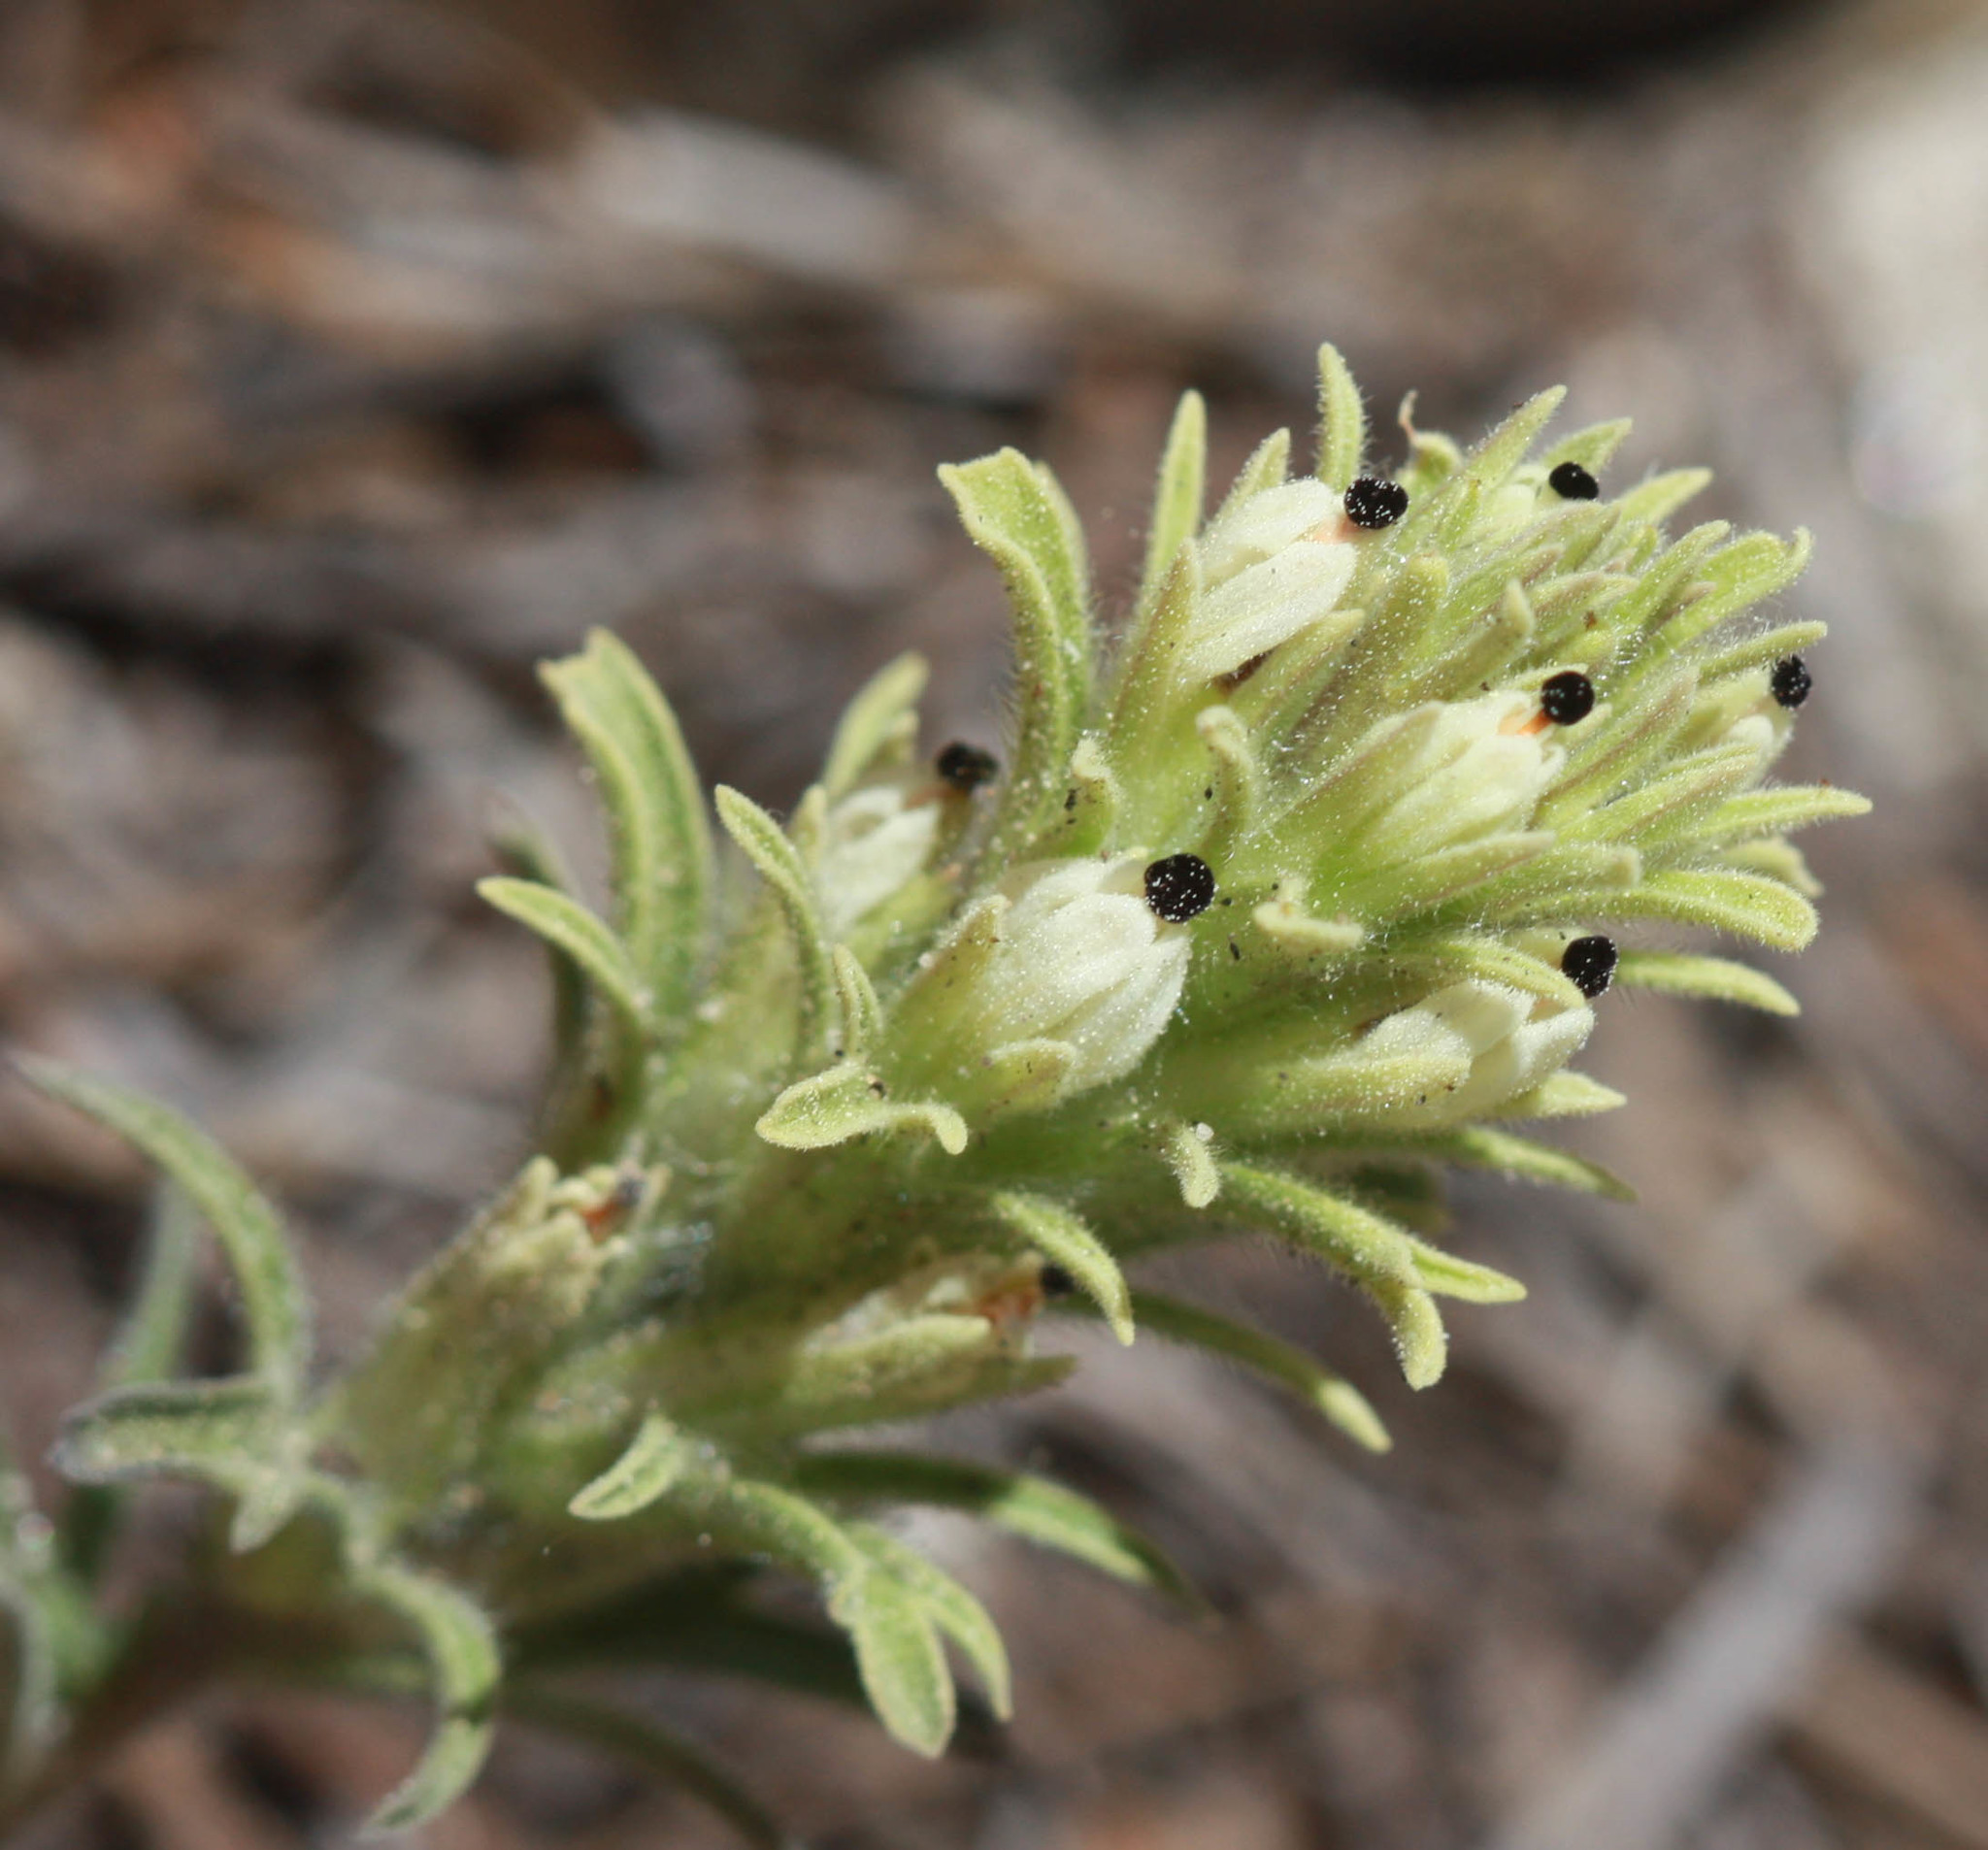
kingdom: Plantae
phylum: Tracheophyta
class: Magnoliopsida
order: Lamiales
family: Orobanchaceae
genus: Castilleja
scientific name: Castilleja nana
